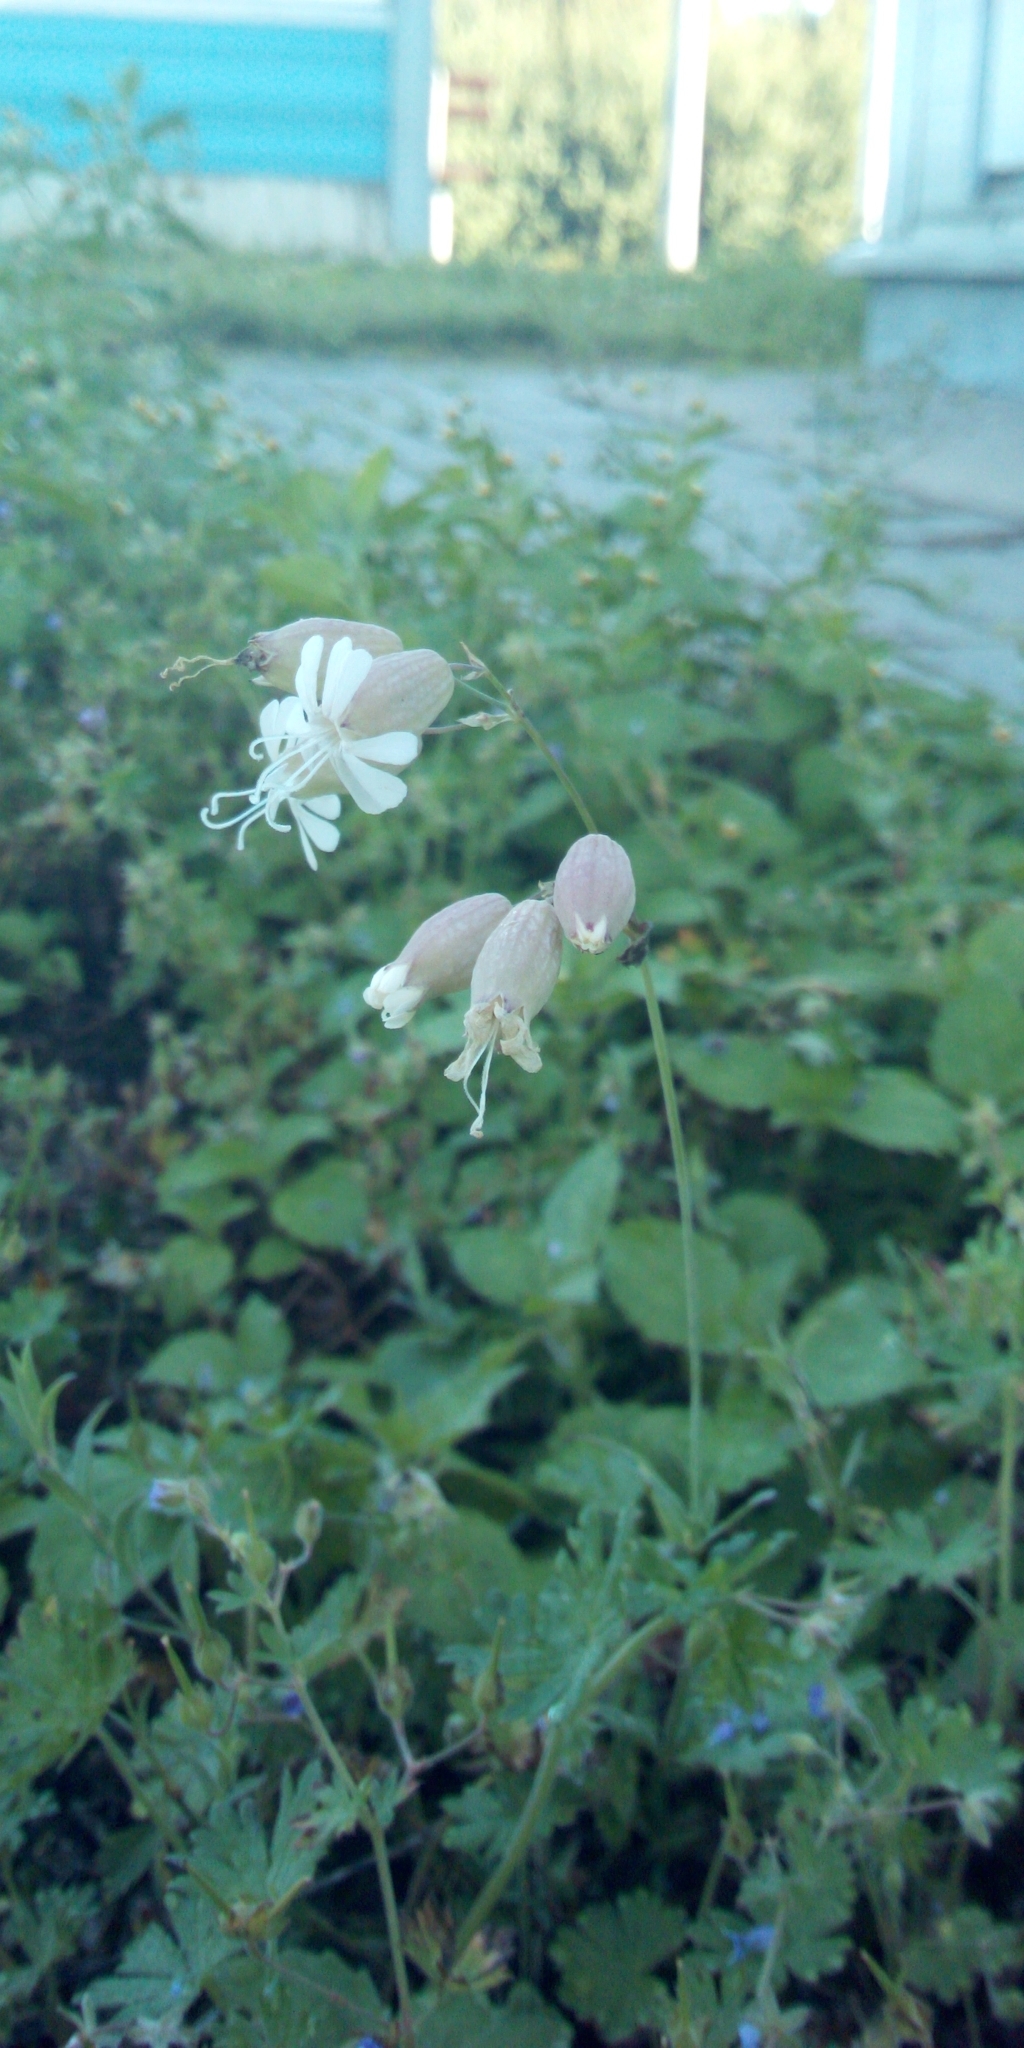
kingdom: Plantae
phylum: Tracheophyta
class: Magnoliopsida
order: Caryophyllales
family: Caryophyllaceae
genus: Silene
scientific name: Silene vulgaris
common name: Bladder campion
